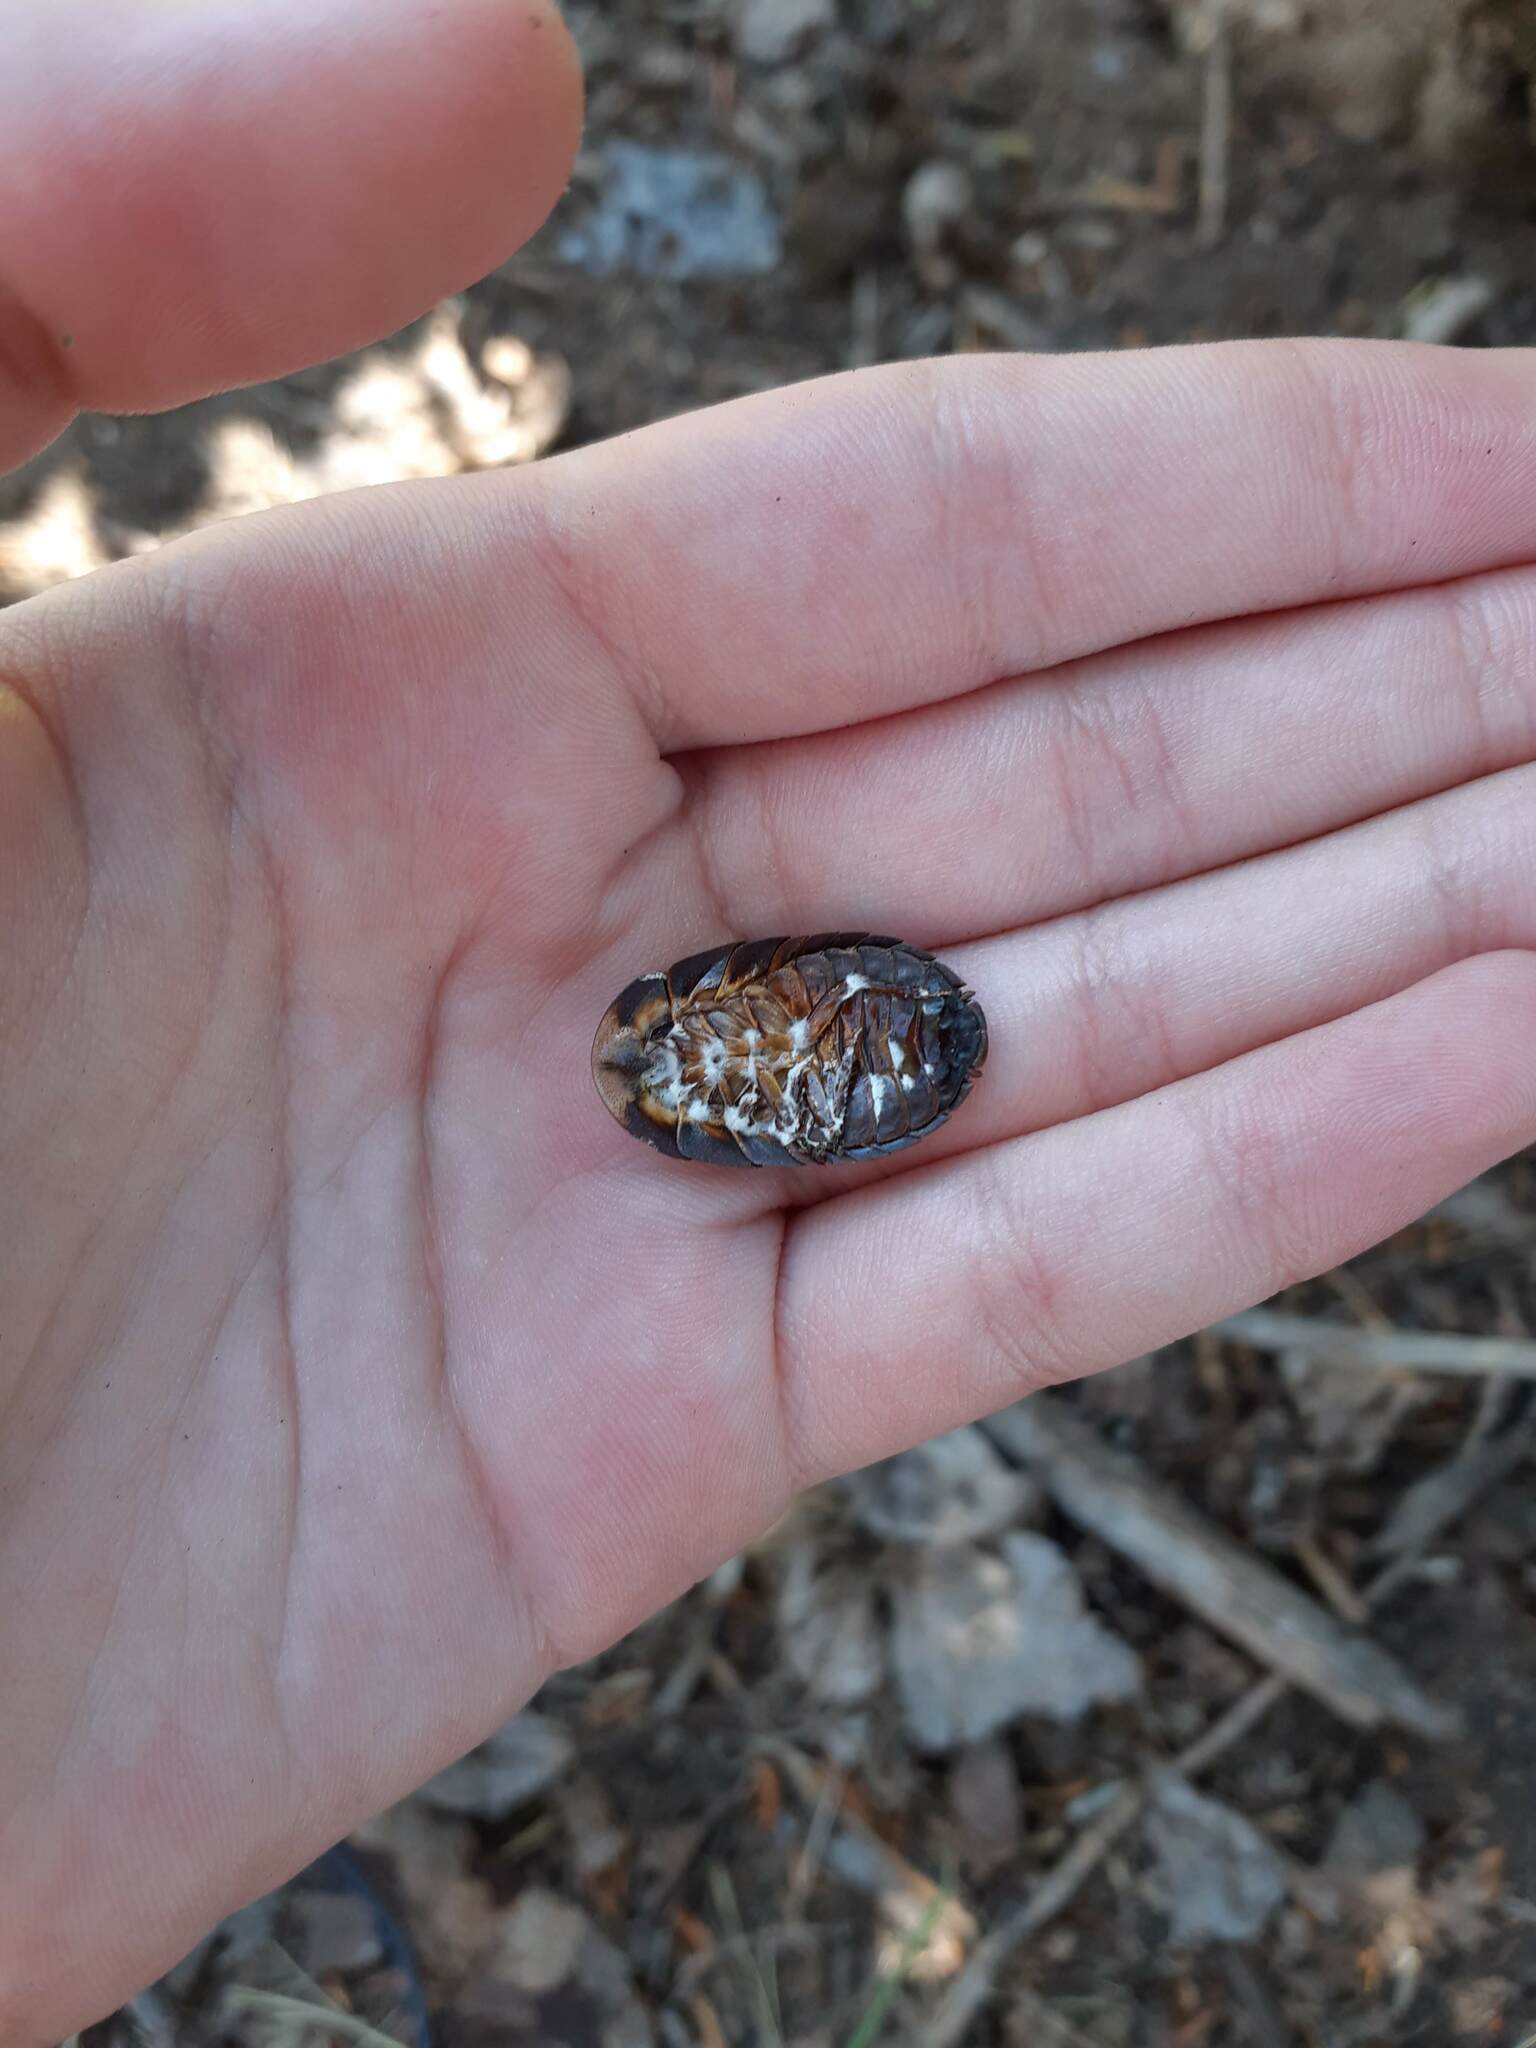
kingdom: Animalia
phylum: Arthropoda
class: Insecta
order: Blattodea
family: Blaberidae
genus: Laxta
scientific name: Laxta granicollis
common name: Bark cockroach
